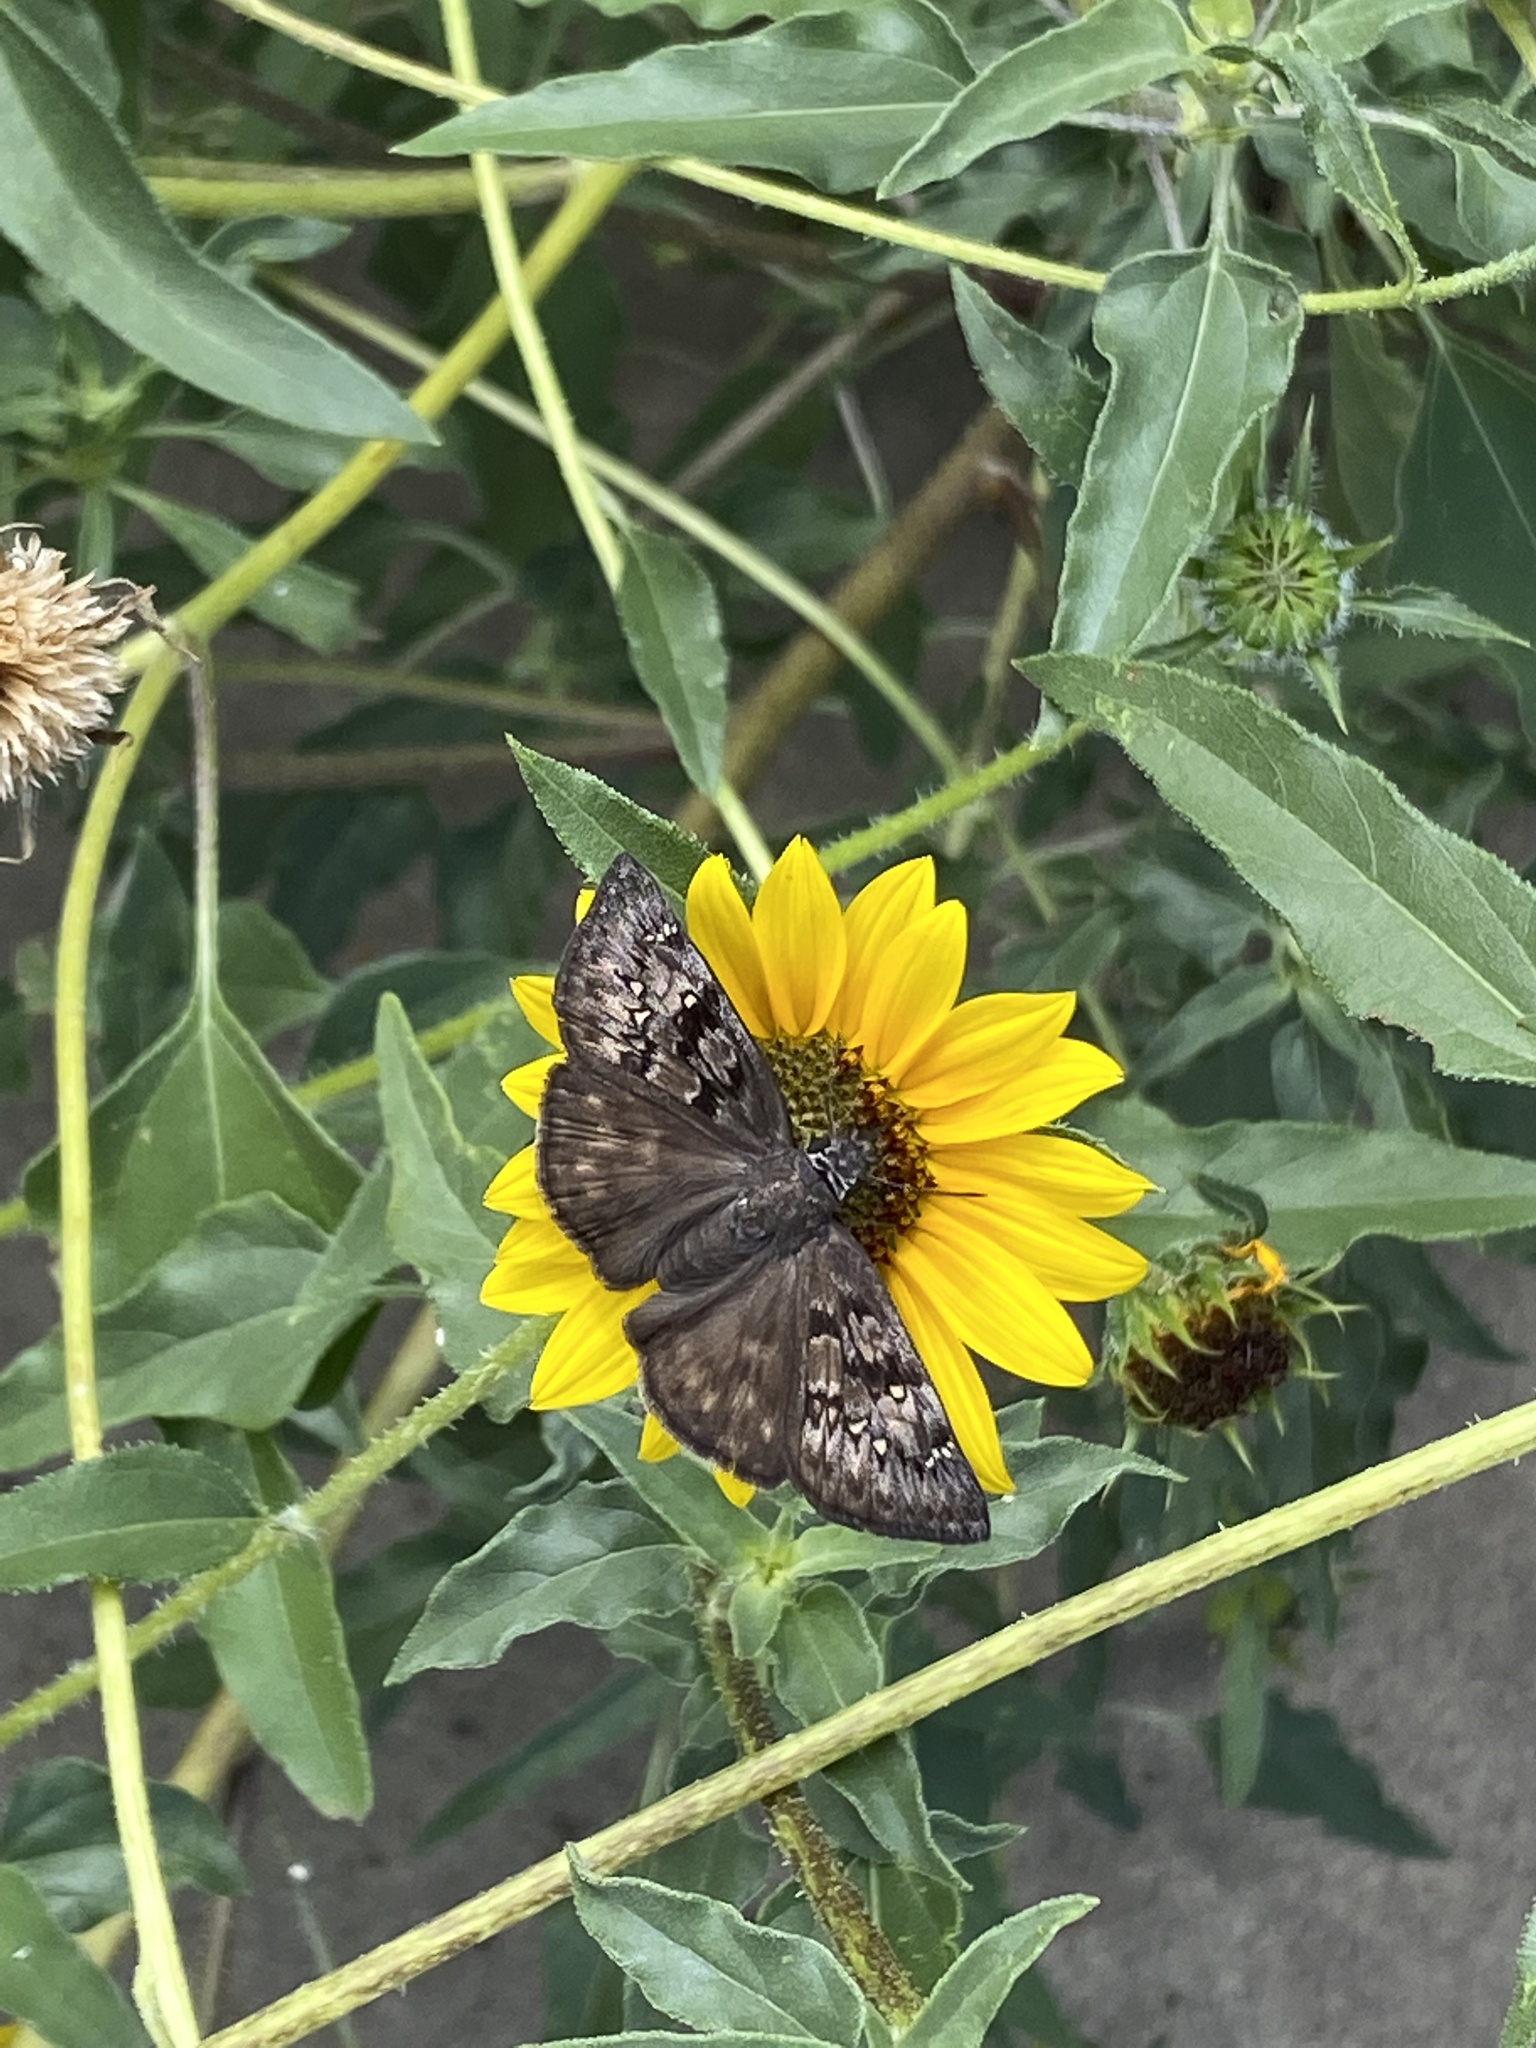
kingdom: Animalia
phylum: Arthropoda
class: Insecta
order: Lepidoptera
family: Hesperiidae
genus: Erynnis
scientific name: Erynnis afranius
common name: Afranius duskywing
